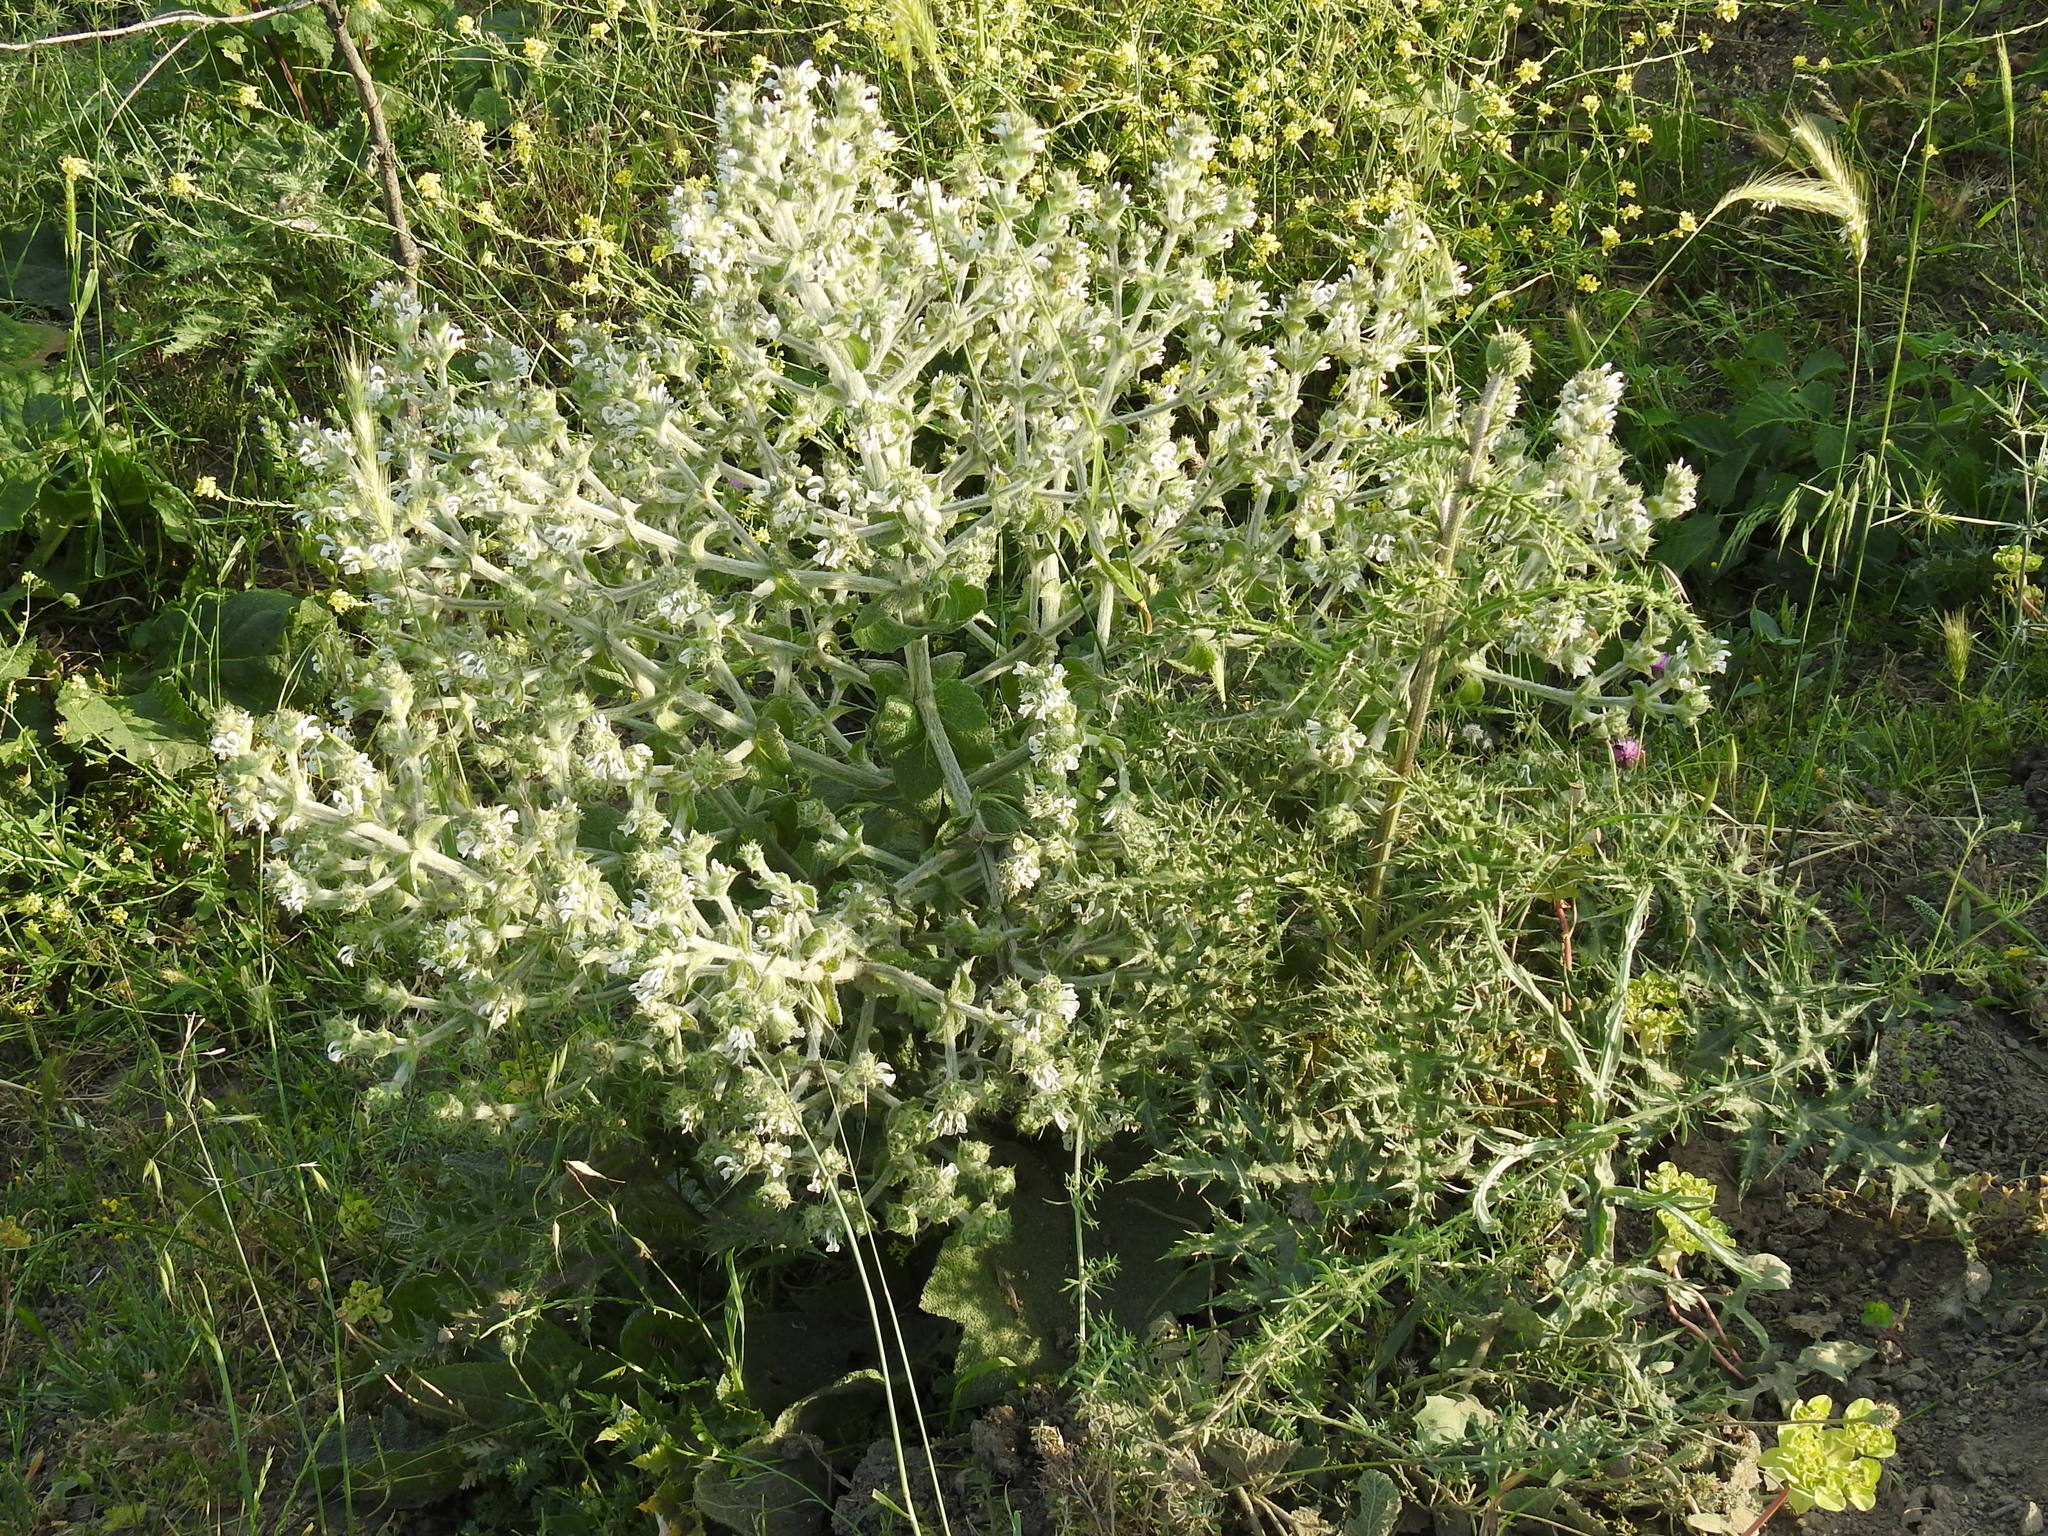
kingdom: Plantae
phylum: Tracheophyta
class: Magnoliopsida
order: Lamiales
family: Lamiaceae
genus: Salvia
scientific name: Salvia aethiopis
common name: Mediterranean sage
